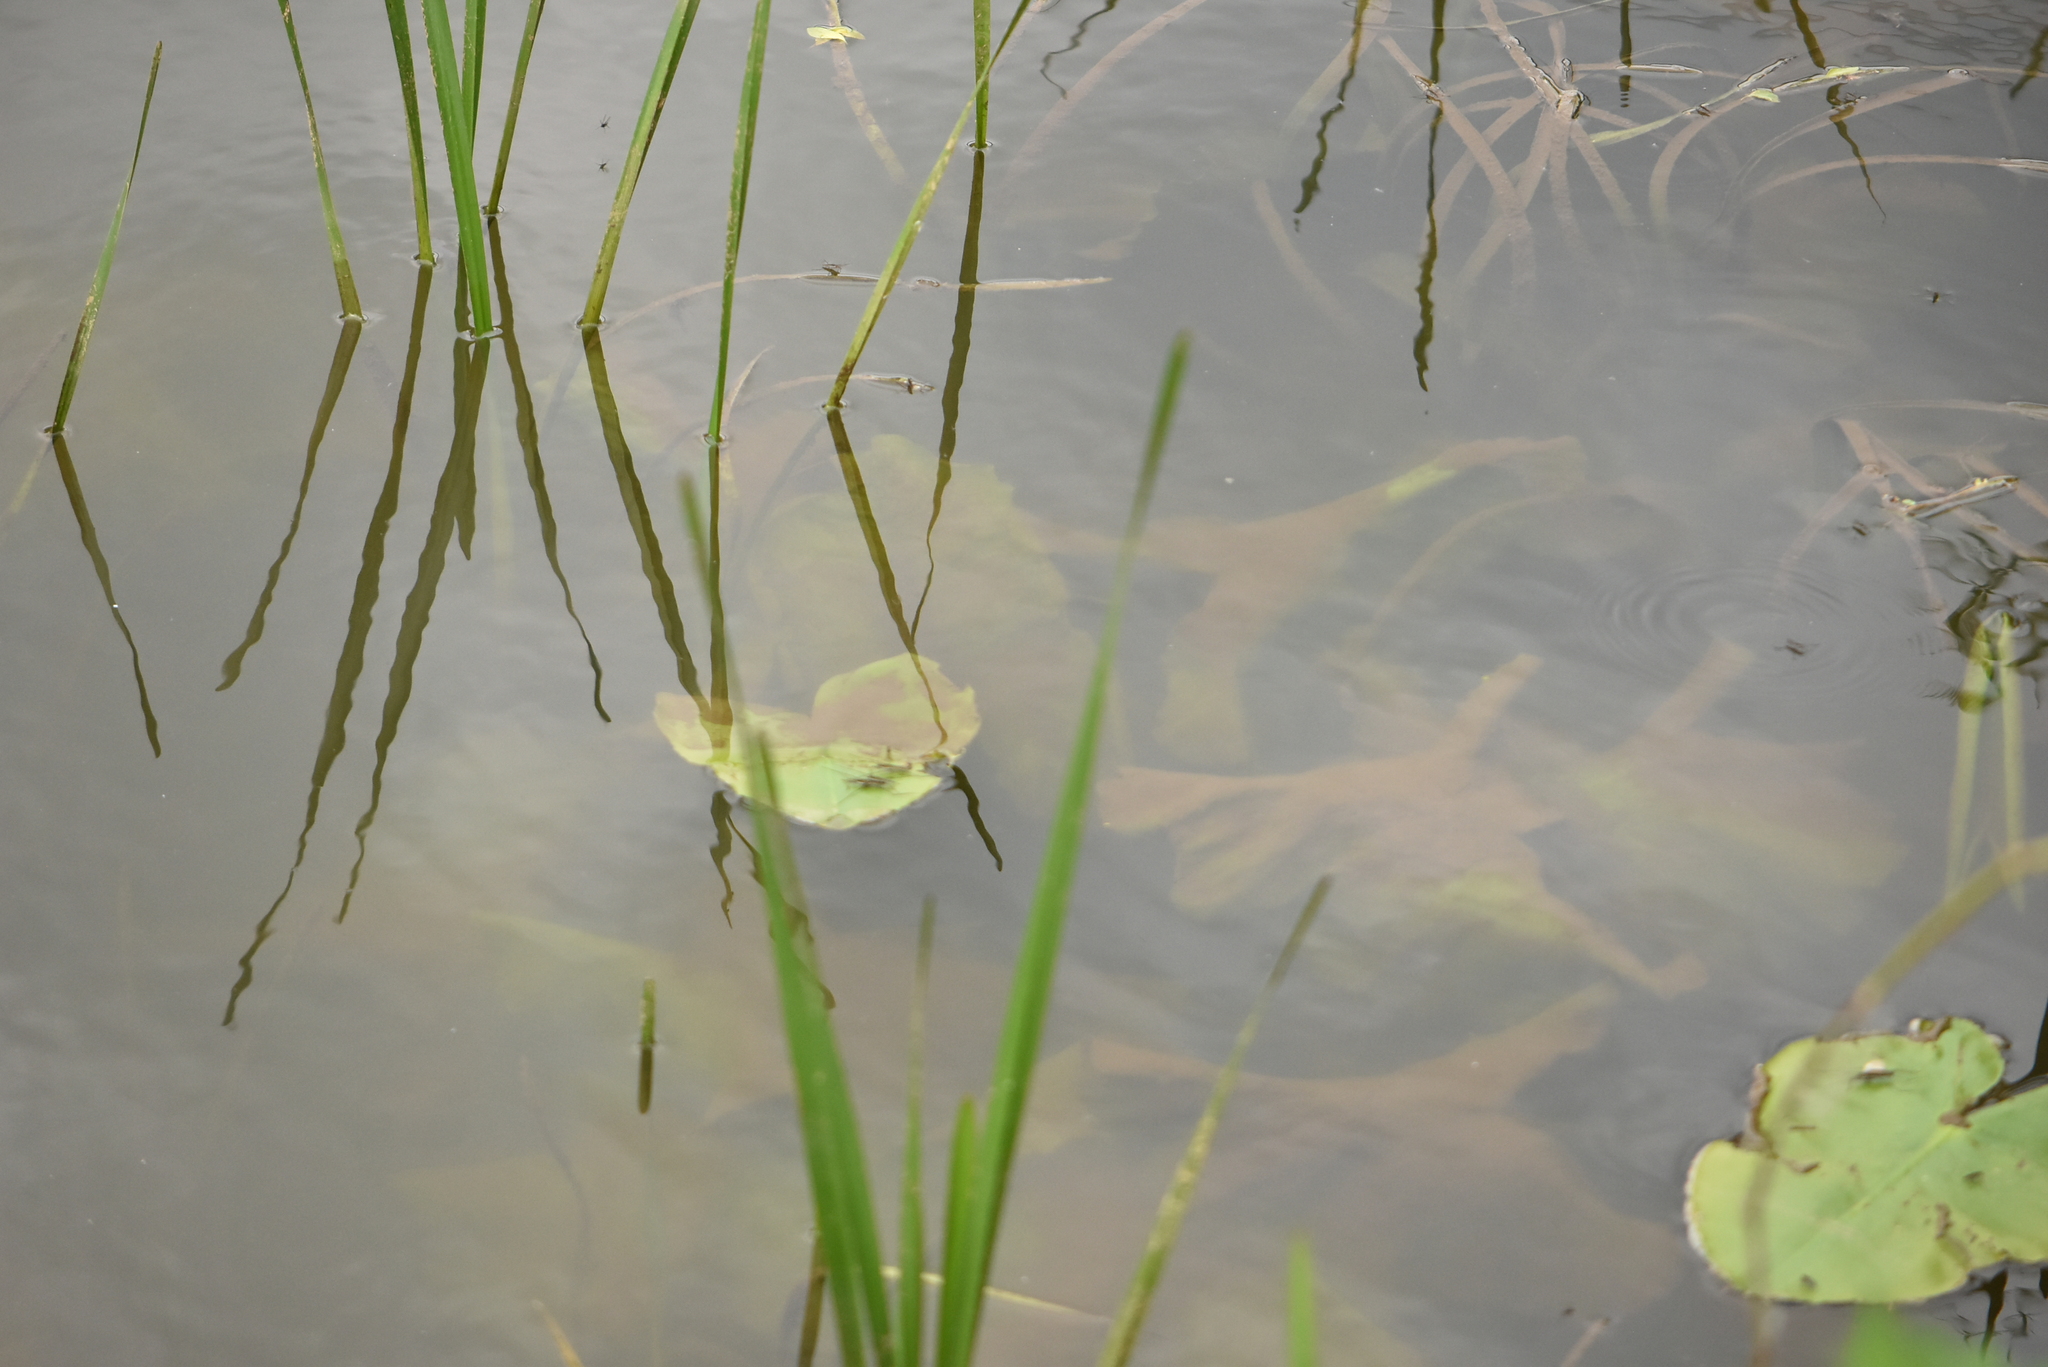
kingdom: Plantae
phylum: Tracheophyta
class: Magnoliopsida
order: Nymphaeales
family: Nymphaeaceae
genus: Nuphar
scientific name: Nuphar lutea
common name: Yellow water-lily
